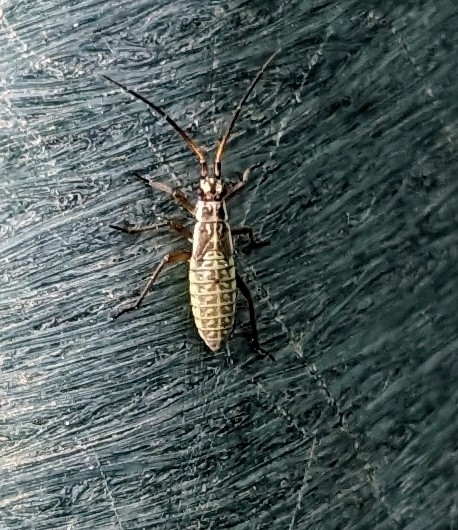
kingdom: Animalia
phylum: Arthropoda
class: Insecta
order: Hemiptera
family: Miridae
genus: Leptopterna
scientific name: Leptopterna dolabrata
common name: Meadow plant bug
